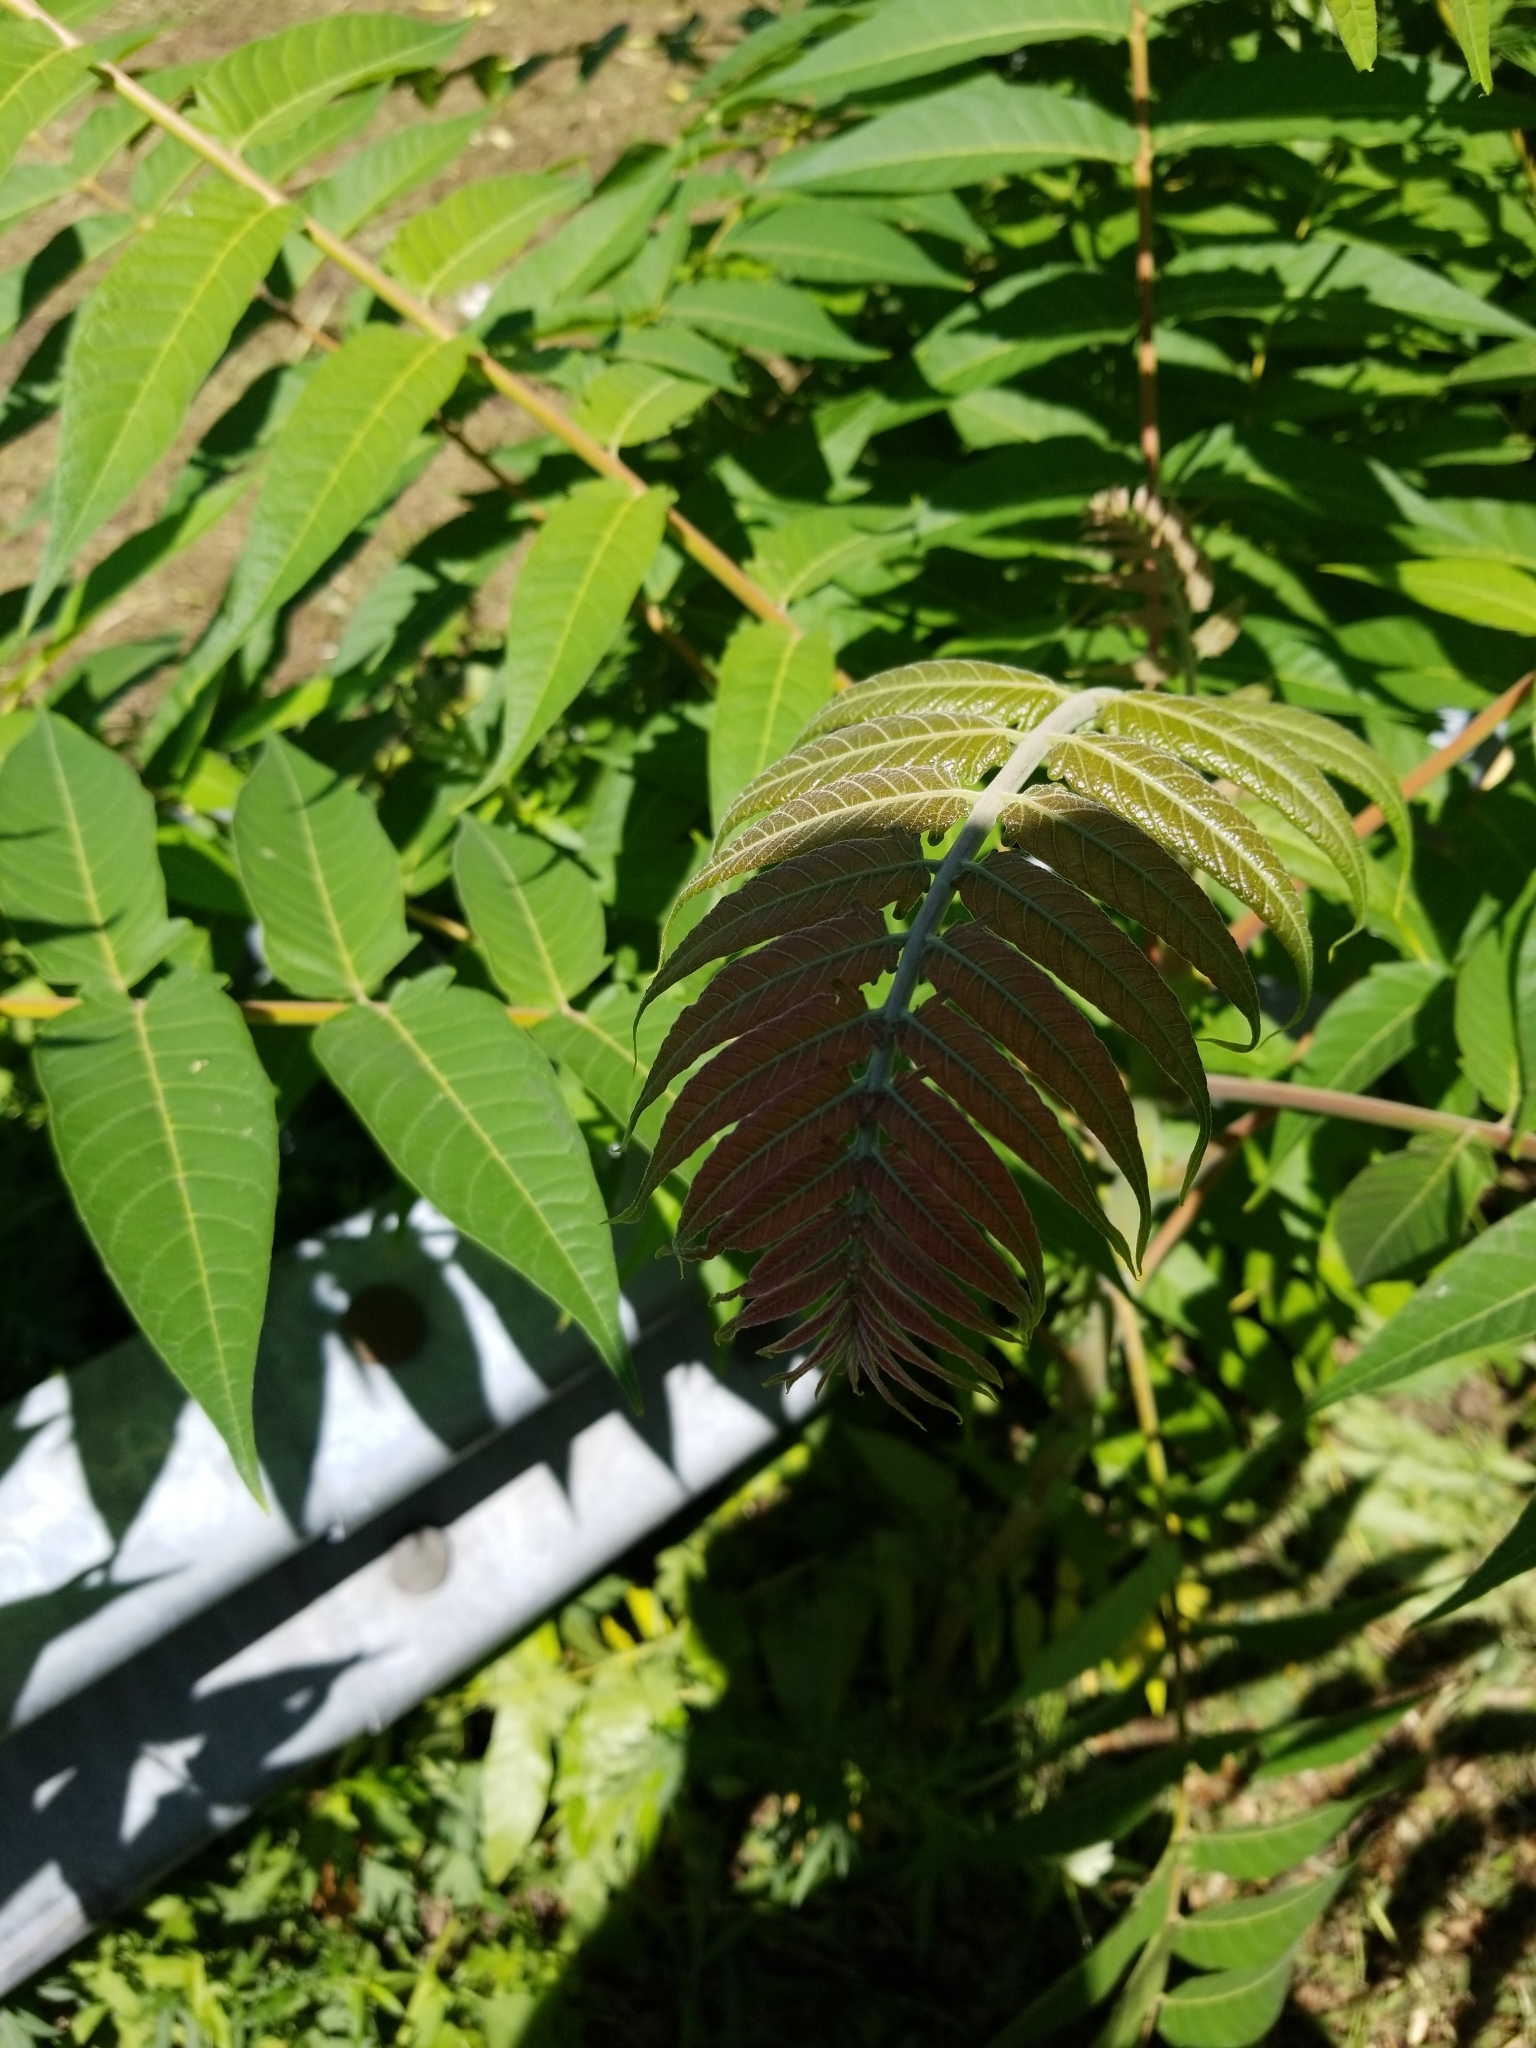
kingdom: Plantae
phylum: Tracheophyta
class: Magnoliopsida
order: Sapindales
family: Simaroubaceae
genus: Ailanthus
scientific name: Ailanthus altissima
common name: Tree-of-heaven
